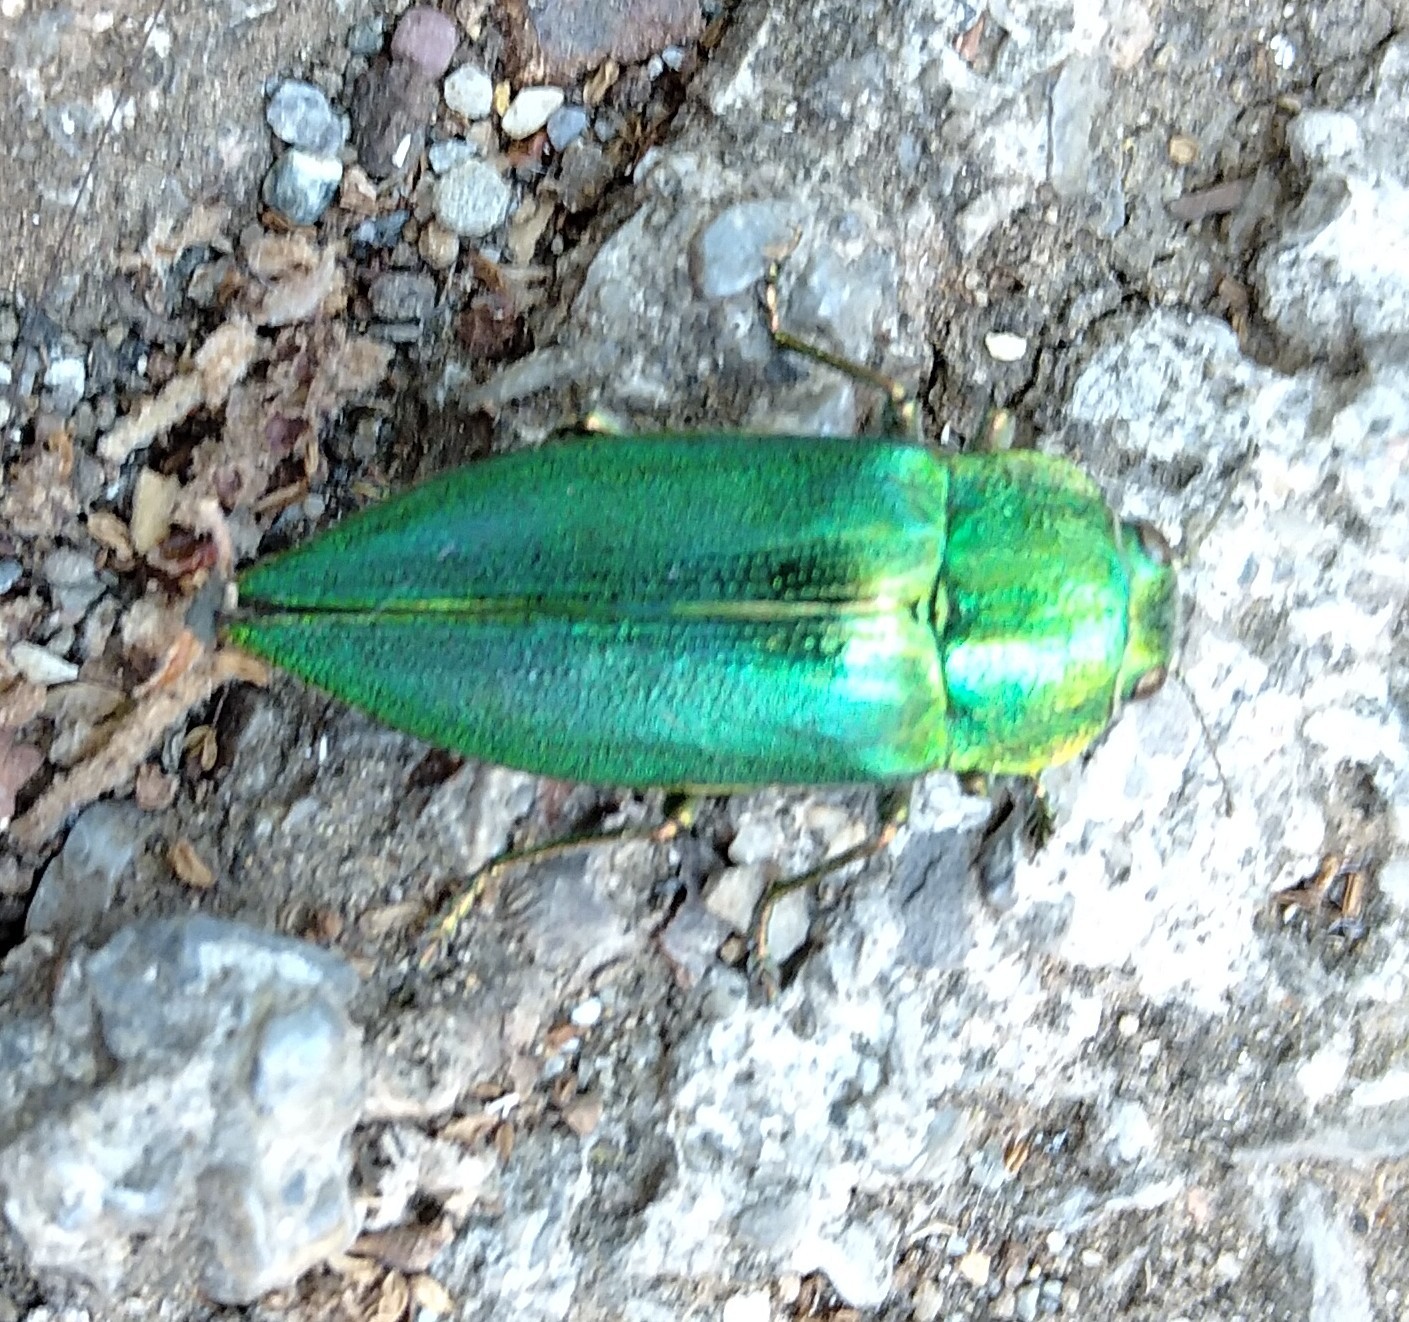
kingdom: Animalia
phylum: Arthropoda
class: Insecta
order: Coleoptera
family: Buprestidae
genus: Latipalpis
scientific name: Latipalpis plana
